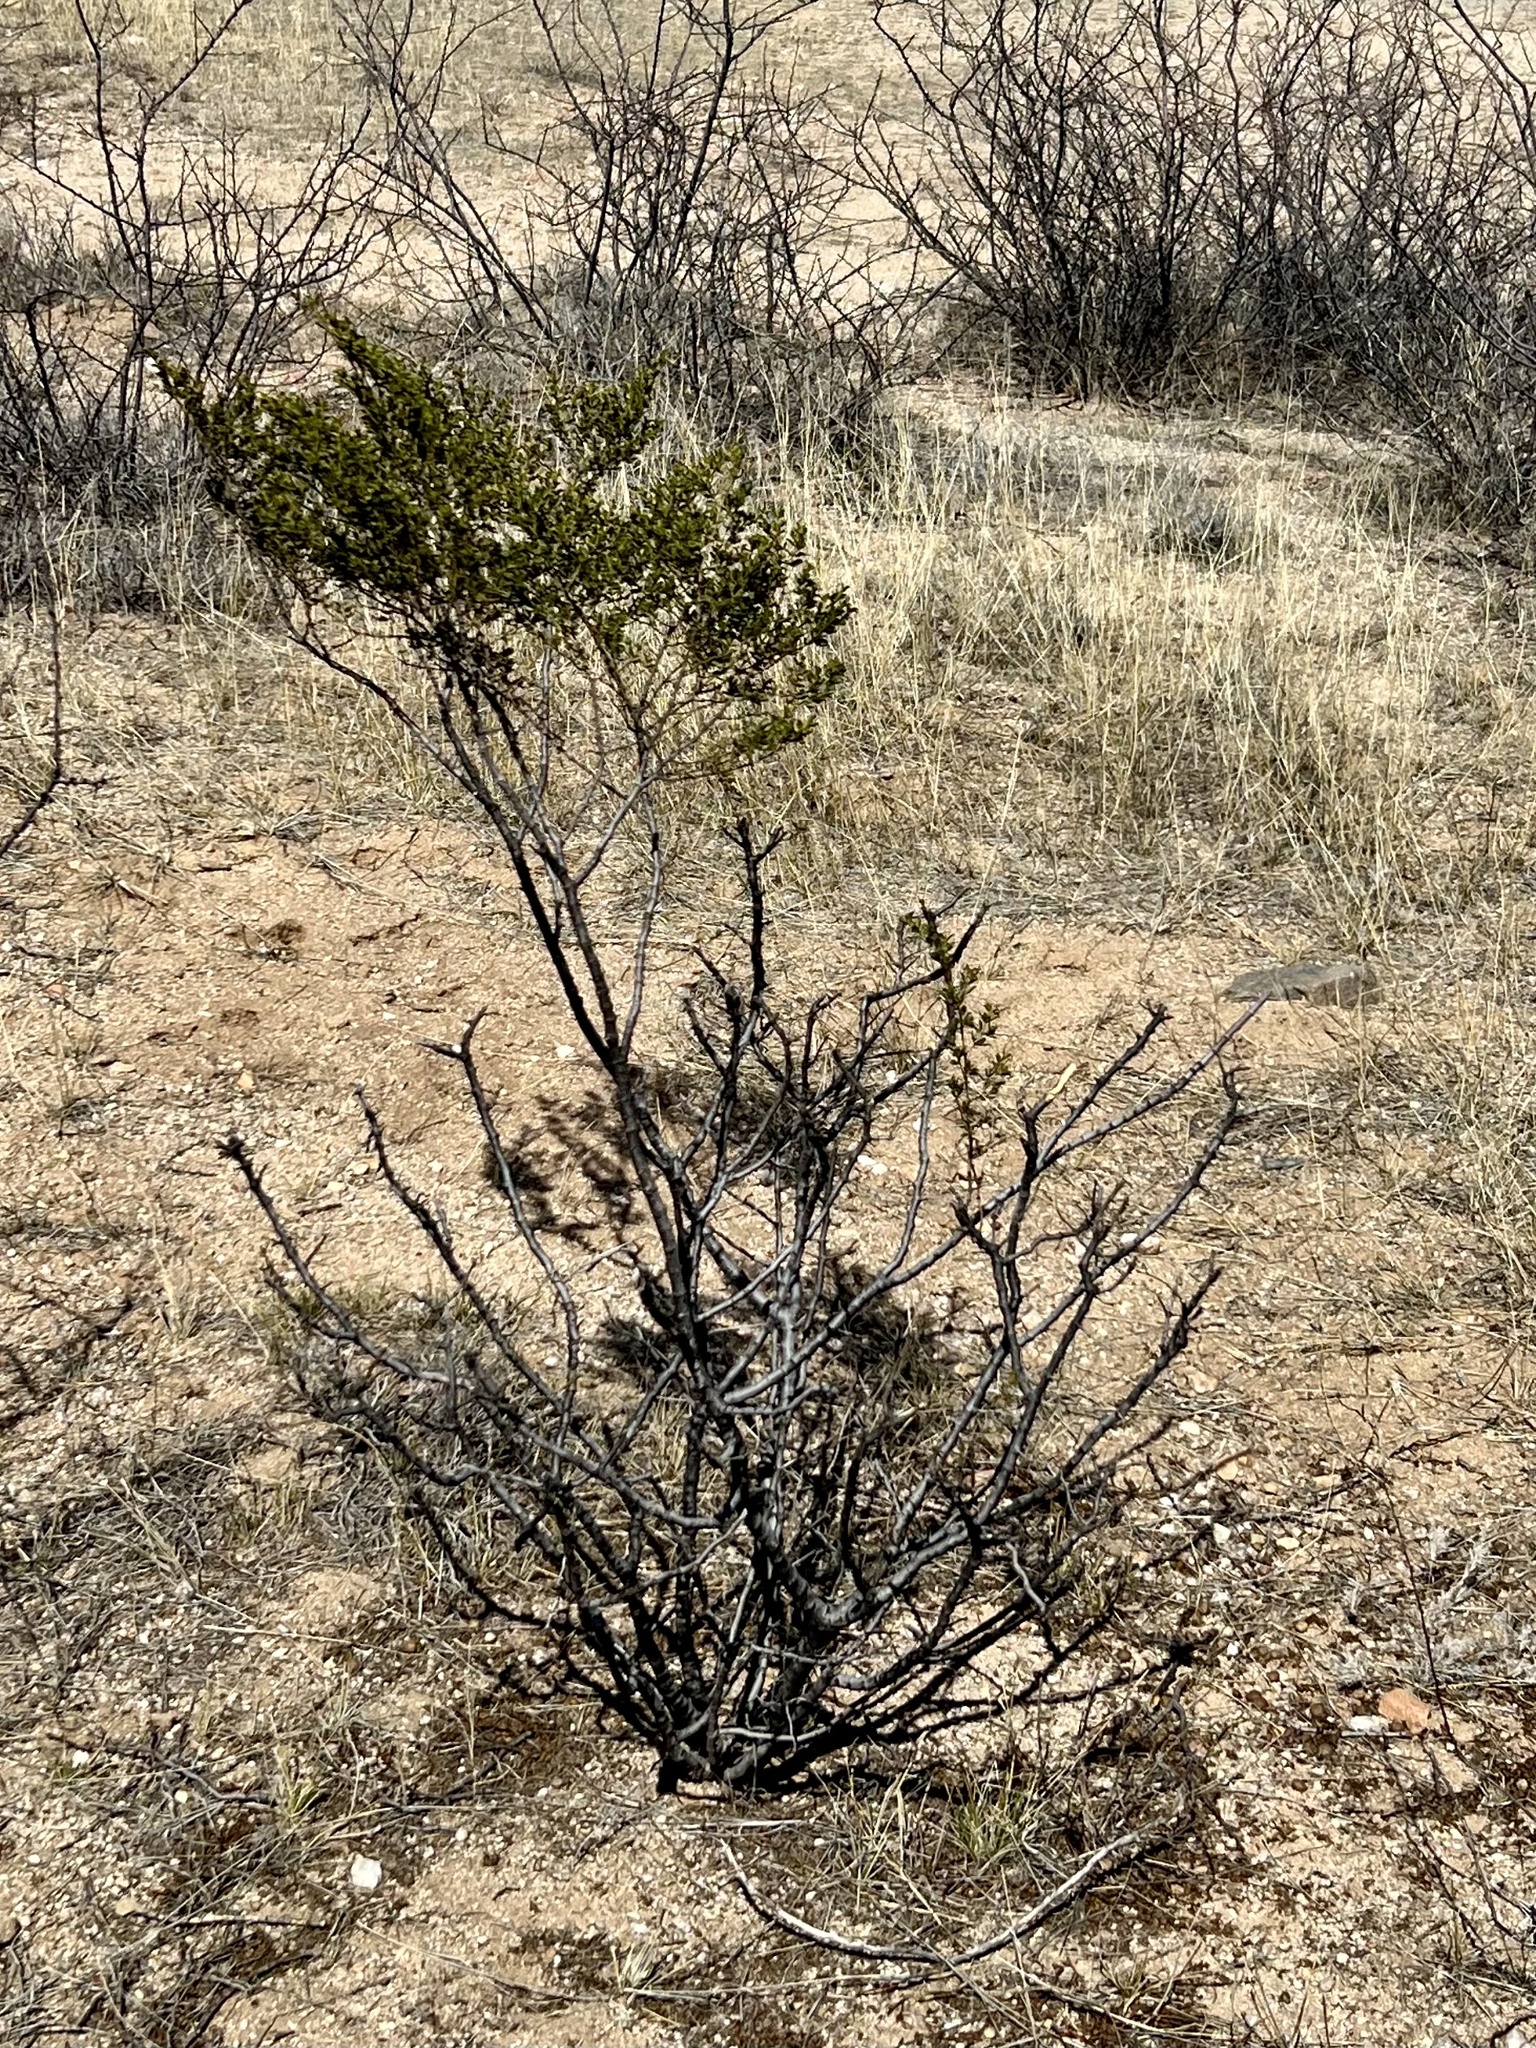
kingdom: Plantae
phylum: Tracheophyta
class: Magnoliopsida
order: Zygophyllales
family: Zygophyllaceae
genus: Larrea
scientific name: Larrea tridentata
